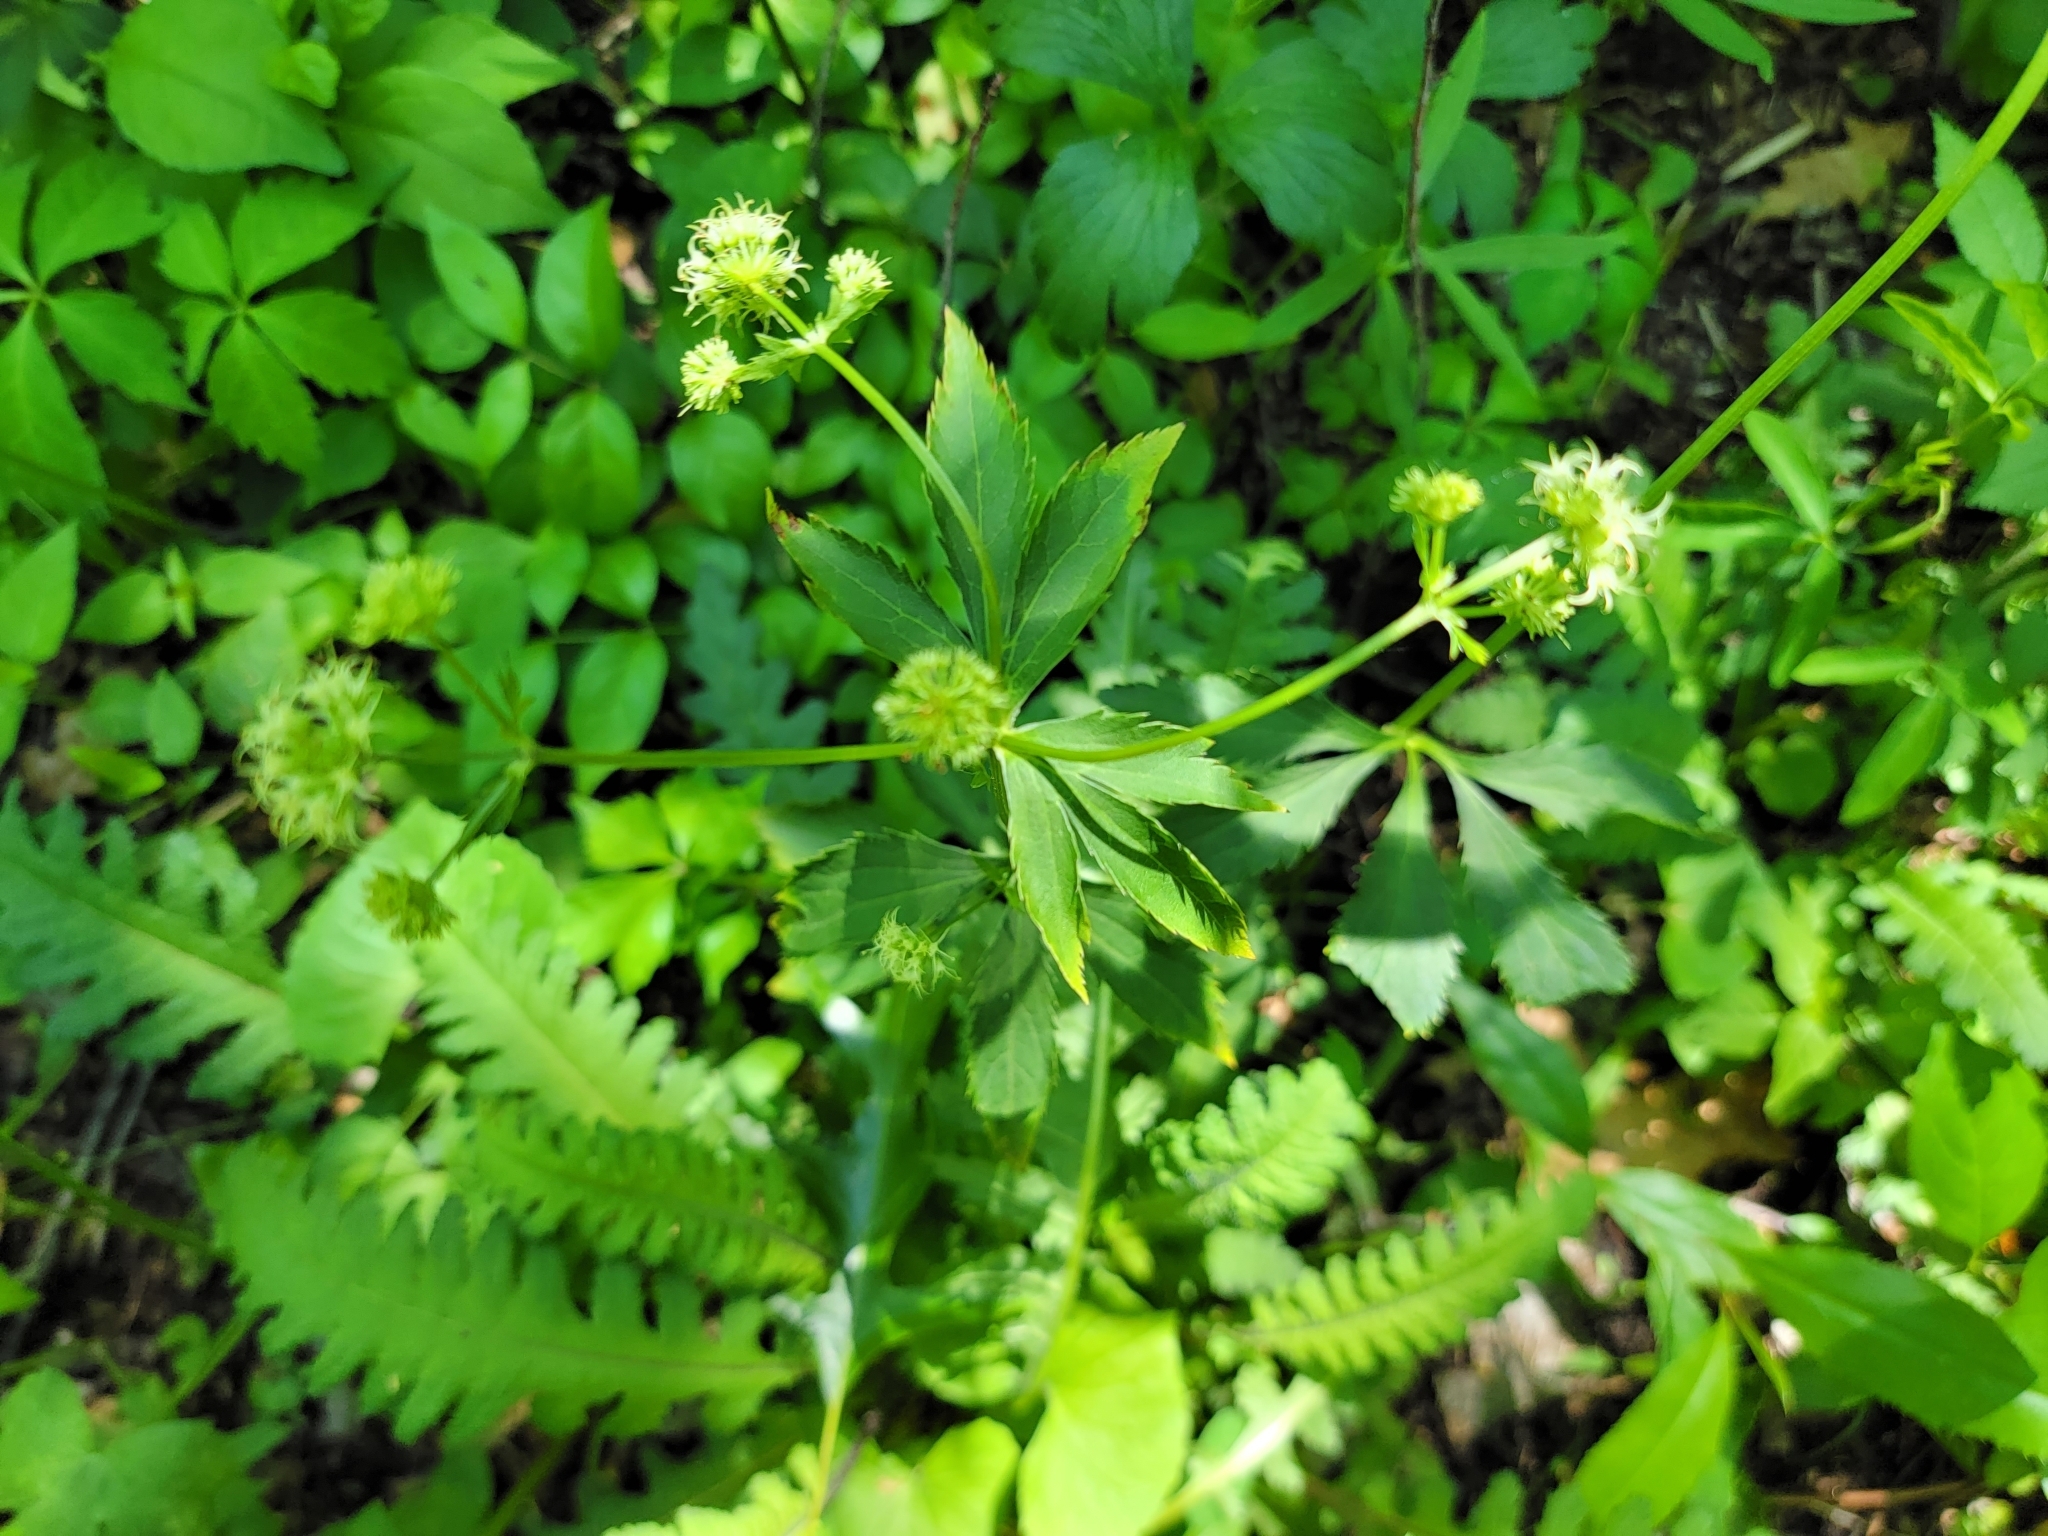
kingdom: Plantae
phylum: Tracheophyta
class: Magnoliopsida
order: Apiales
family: Apiaceae
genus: Sanicula
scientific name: Sanicula marilandica
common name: Black snakeroot
